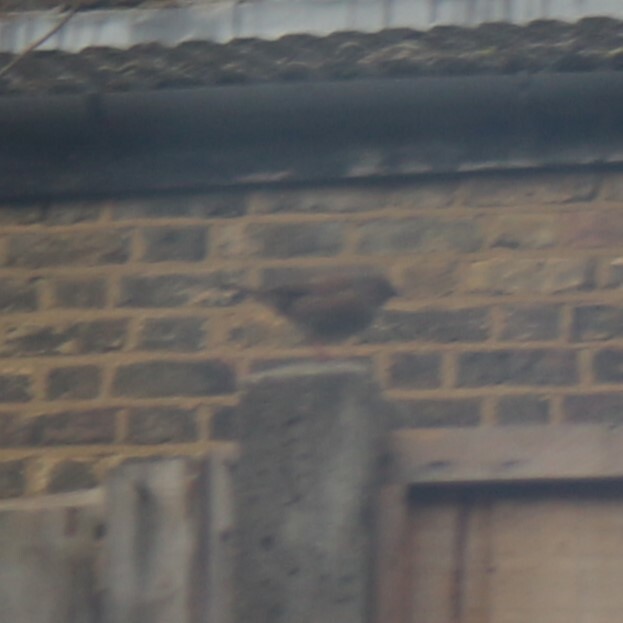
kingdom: Animalia
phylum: Chordata
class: Aves
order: Passeriformes
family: Prunellidae
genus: Prunella
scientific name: Prunella modularis
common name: Dunnock
